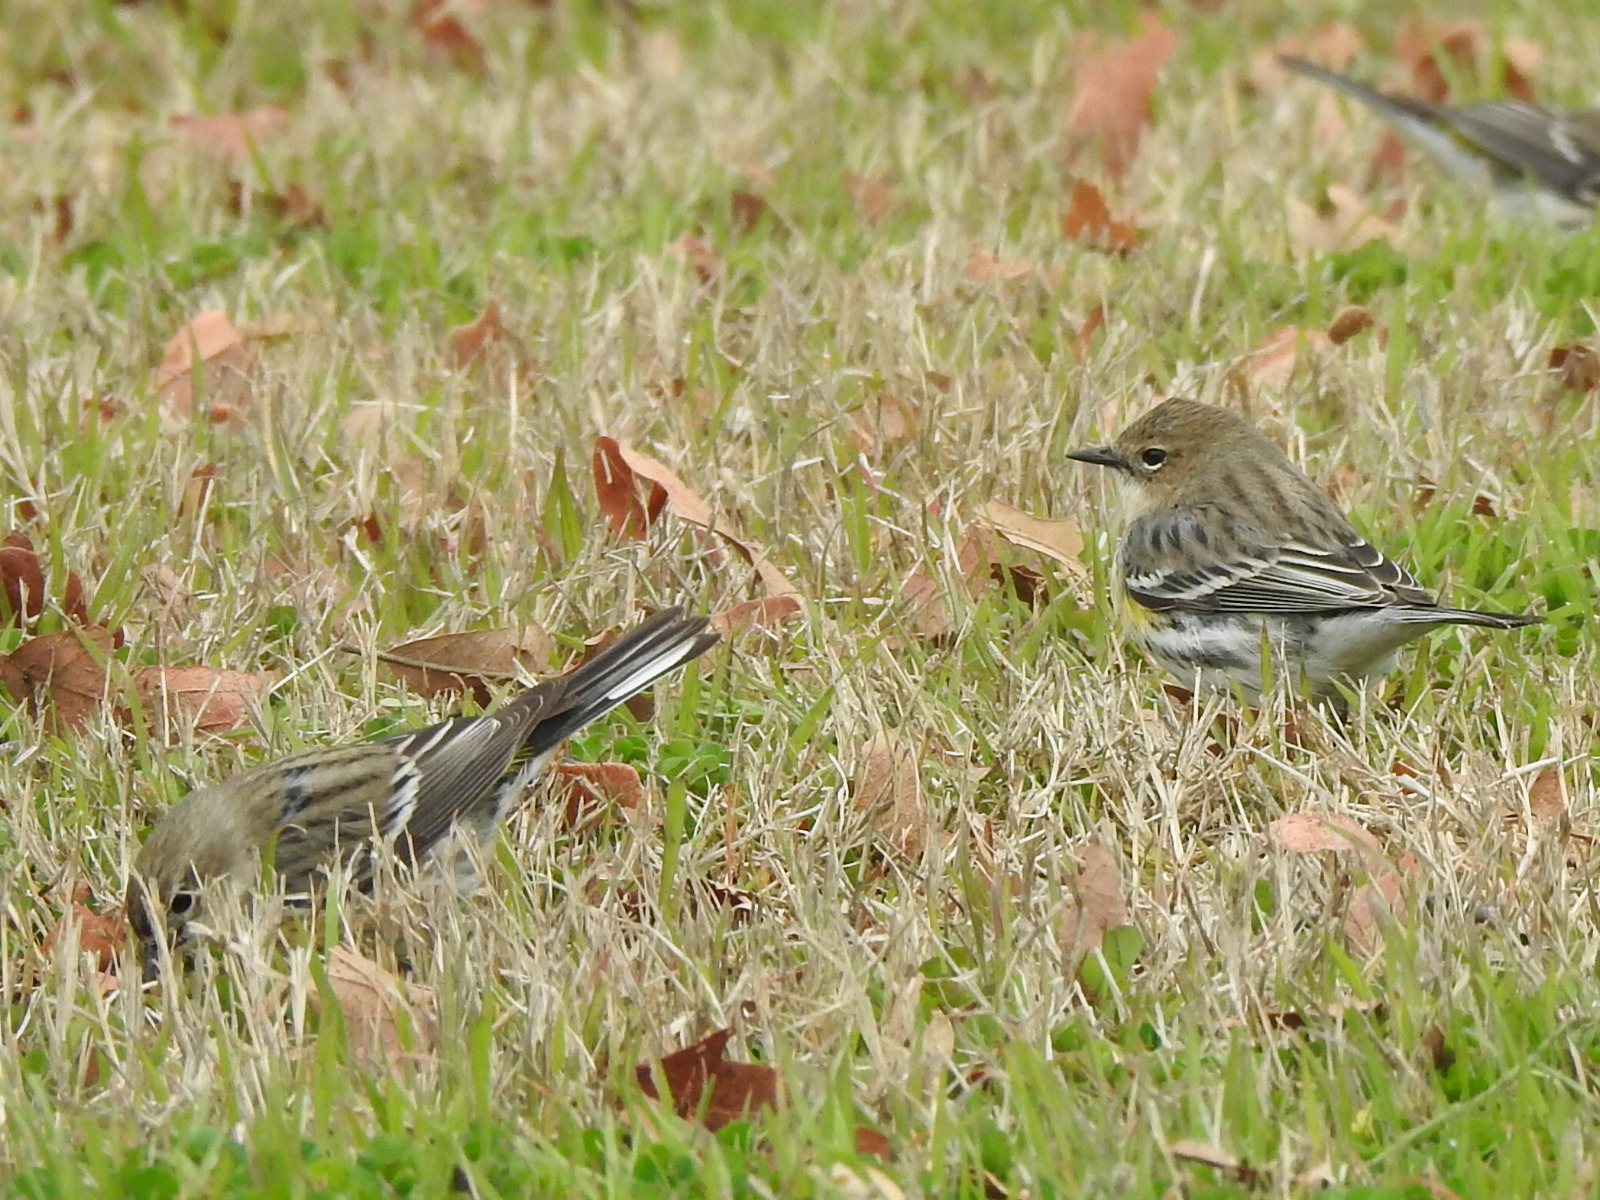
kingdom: Animalia
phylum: Chordata
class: Aves
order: Passeriformes
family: Parulidae
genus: Setophaga
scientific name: Setophaga coronata
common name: Myrtle warbler
